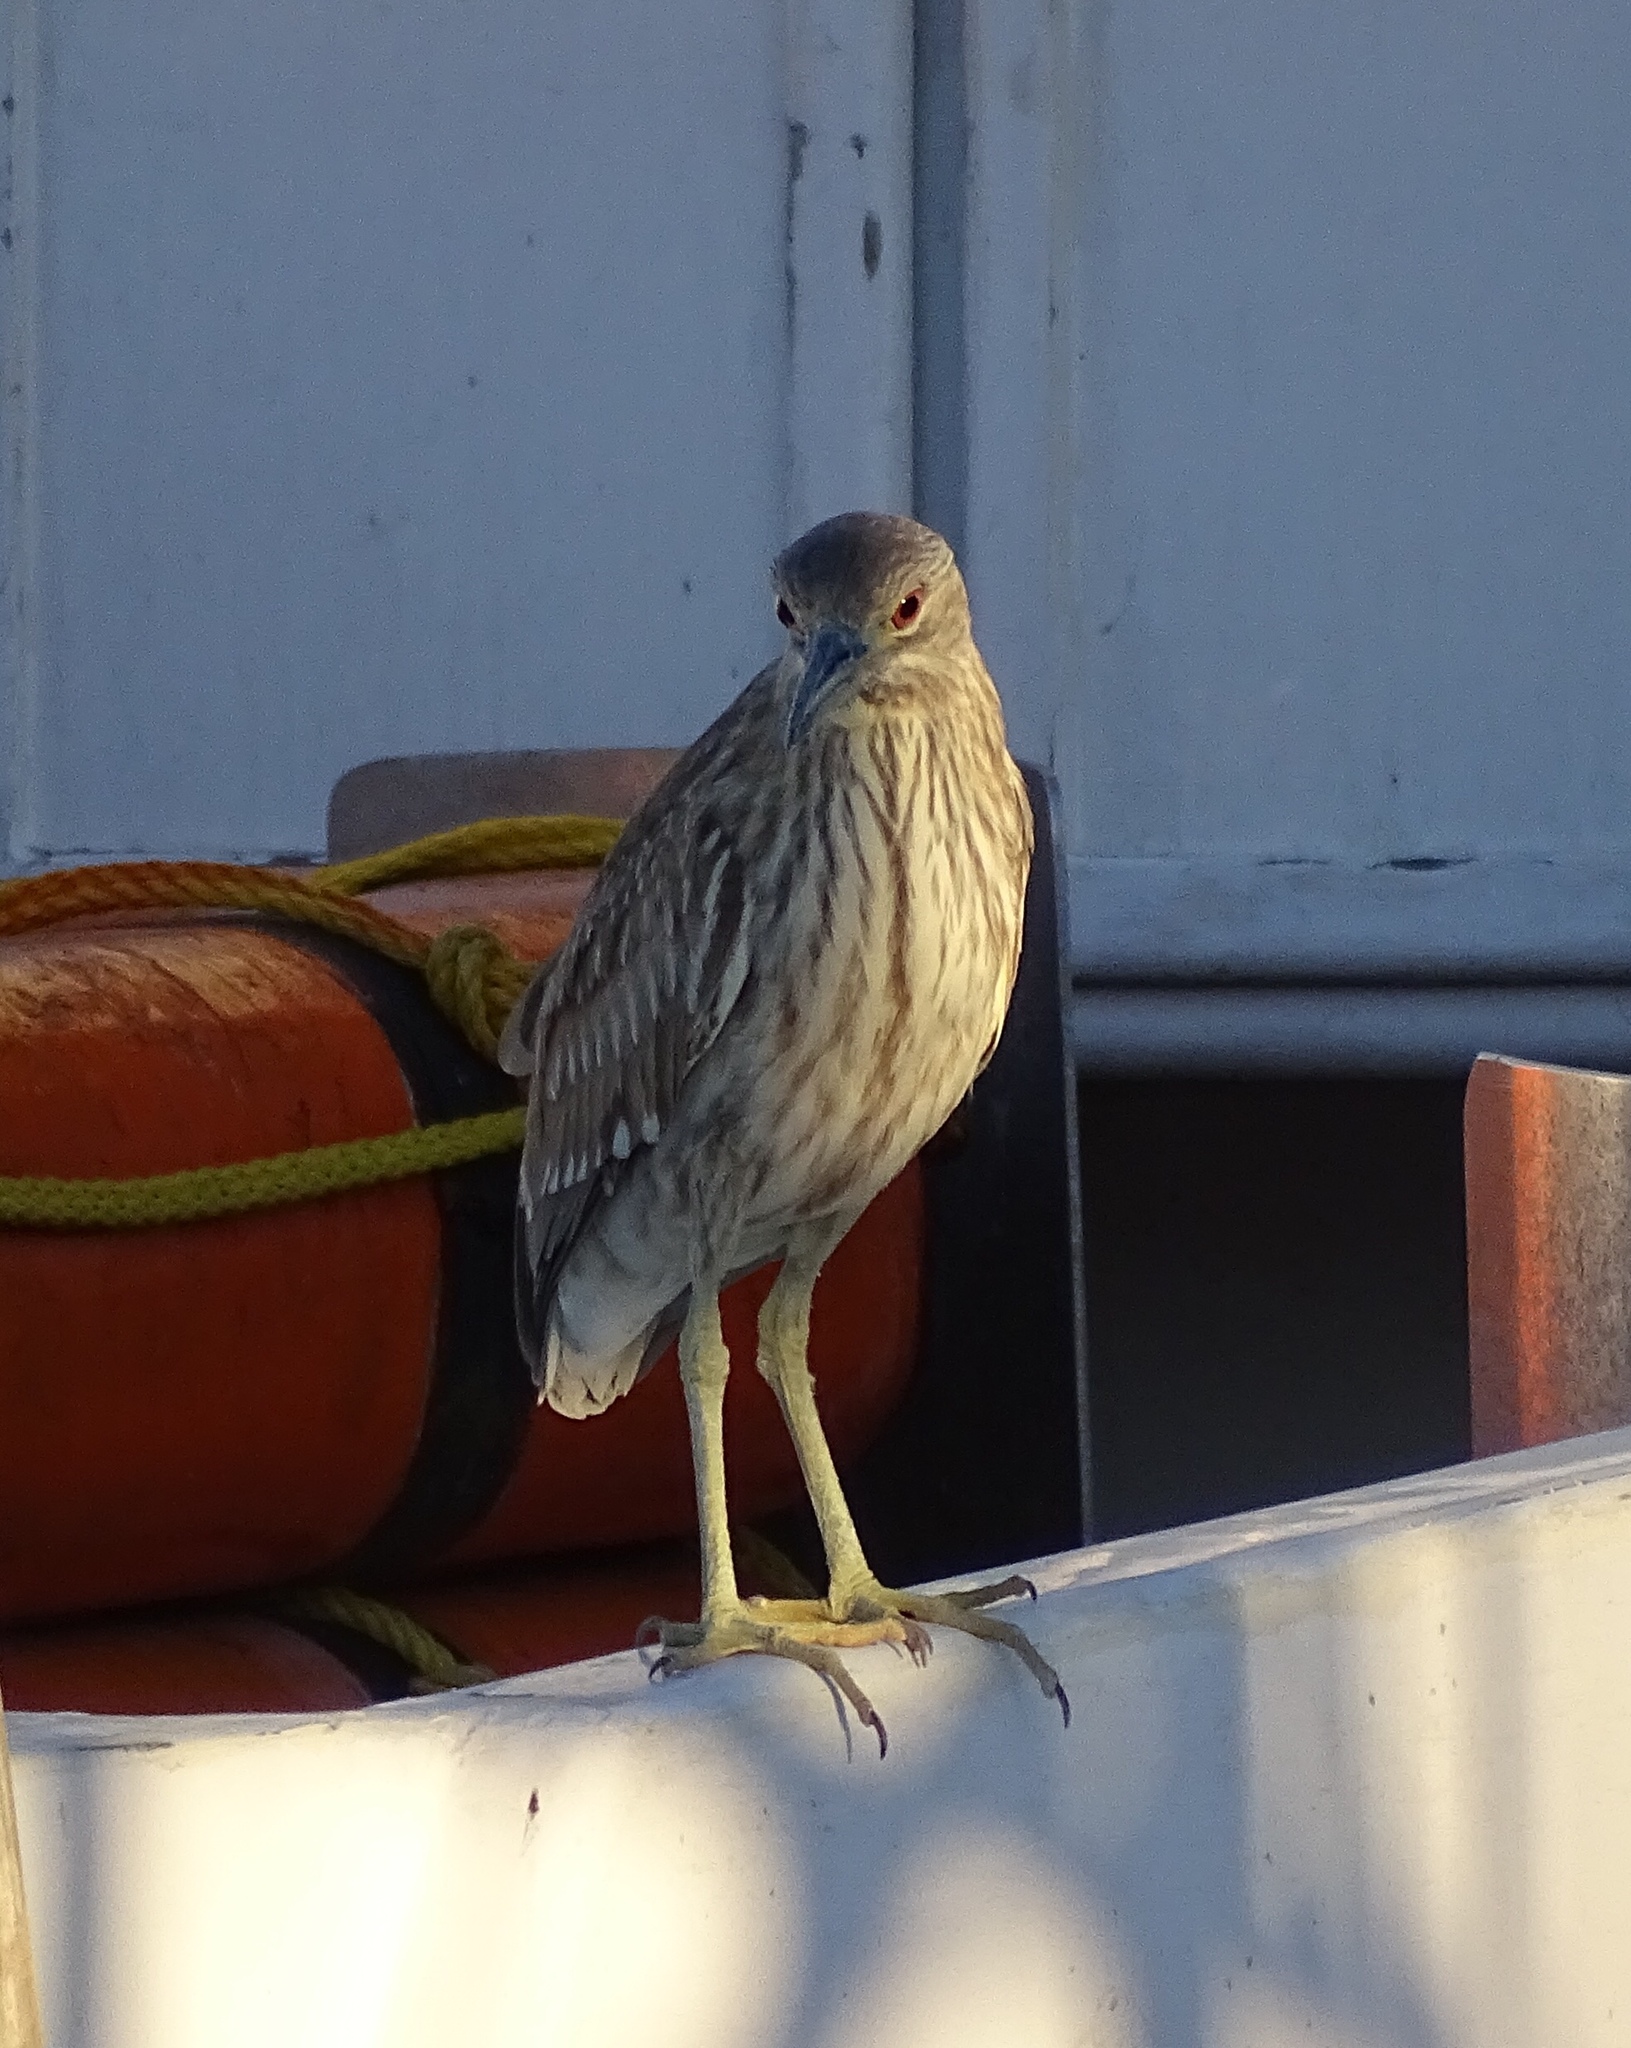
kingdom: Animalia
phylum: Chordata
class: Aves
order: Pelecaniformes
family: Ardeidae
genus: Nycticorax
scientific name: Nycticorax nycticorax
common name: Black-crowned night heron
